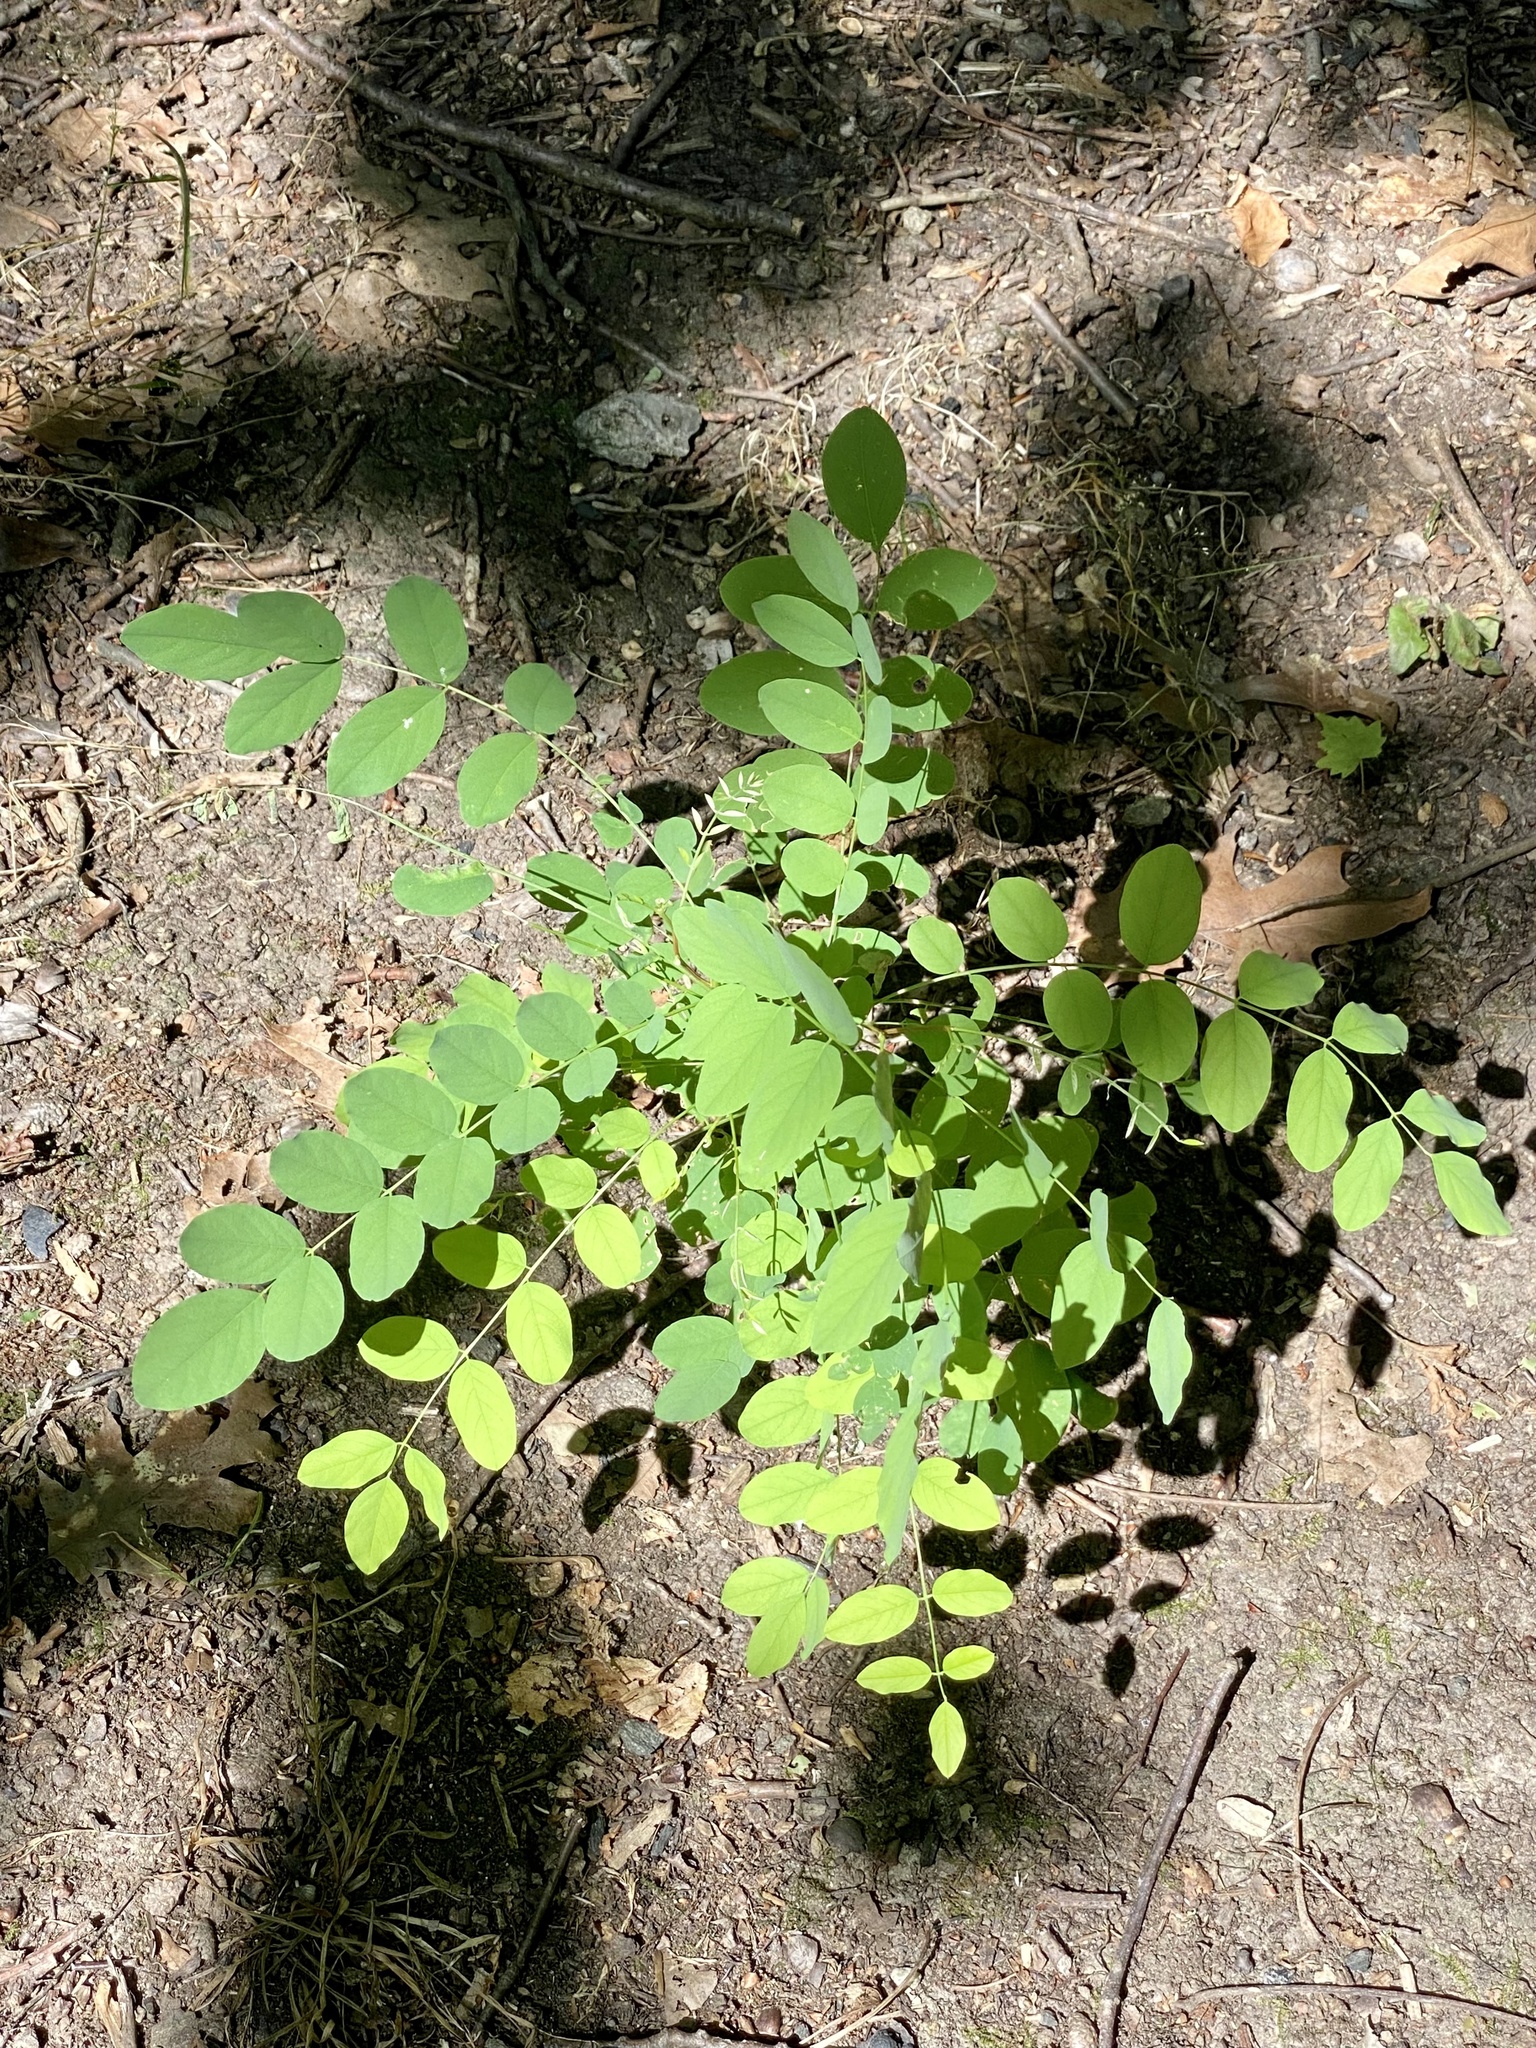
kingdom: Plantae
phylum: Tracheophyta
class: Magnoliopsida
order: Fabales
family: Fabaceae
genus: Robinia
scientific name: Robinia pseudoacacia
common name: Black locust
